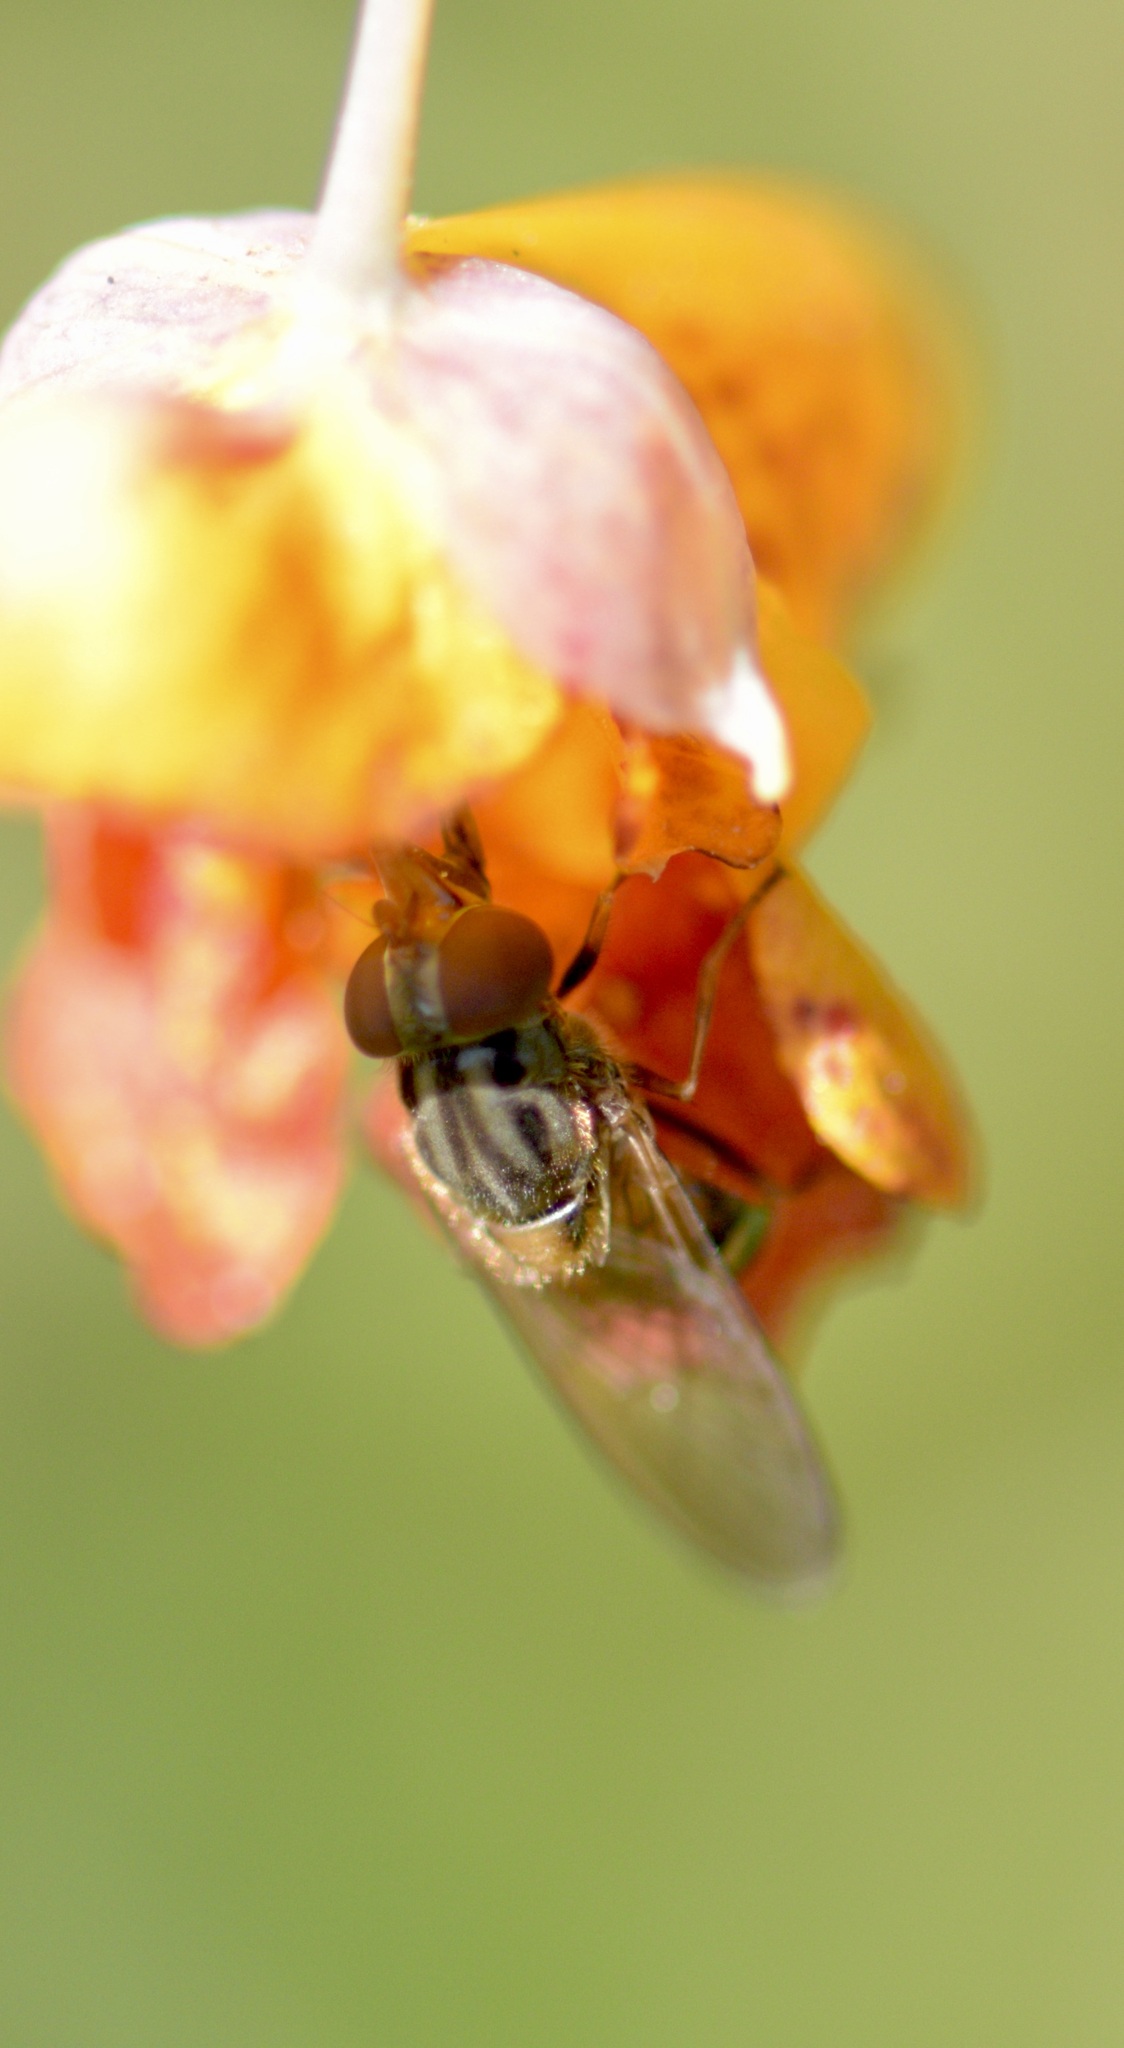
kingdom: Animalia
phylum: Arthropoda
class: Insecta
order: Diptera
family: Syrphidae
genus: Rhingia
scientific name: Rhingia nasica
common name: American snout fly
